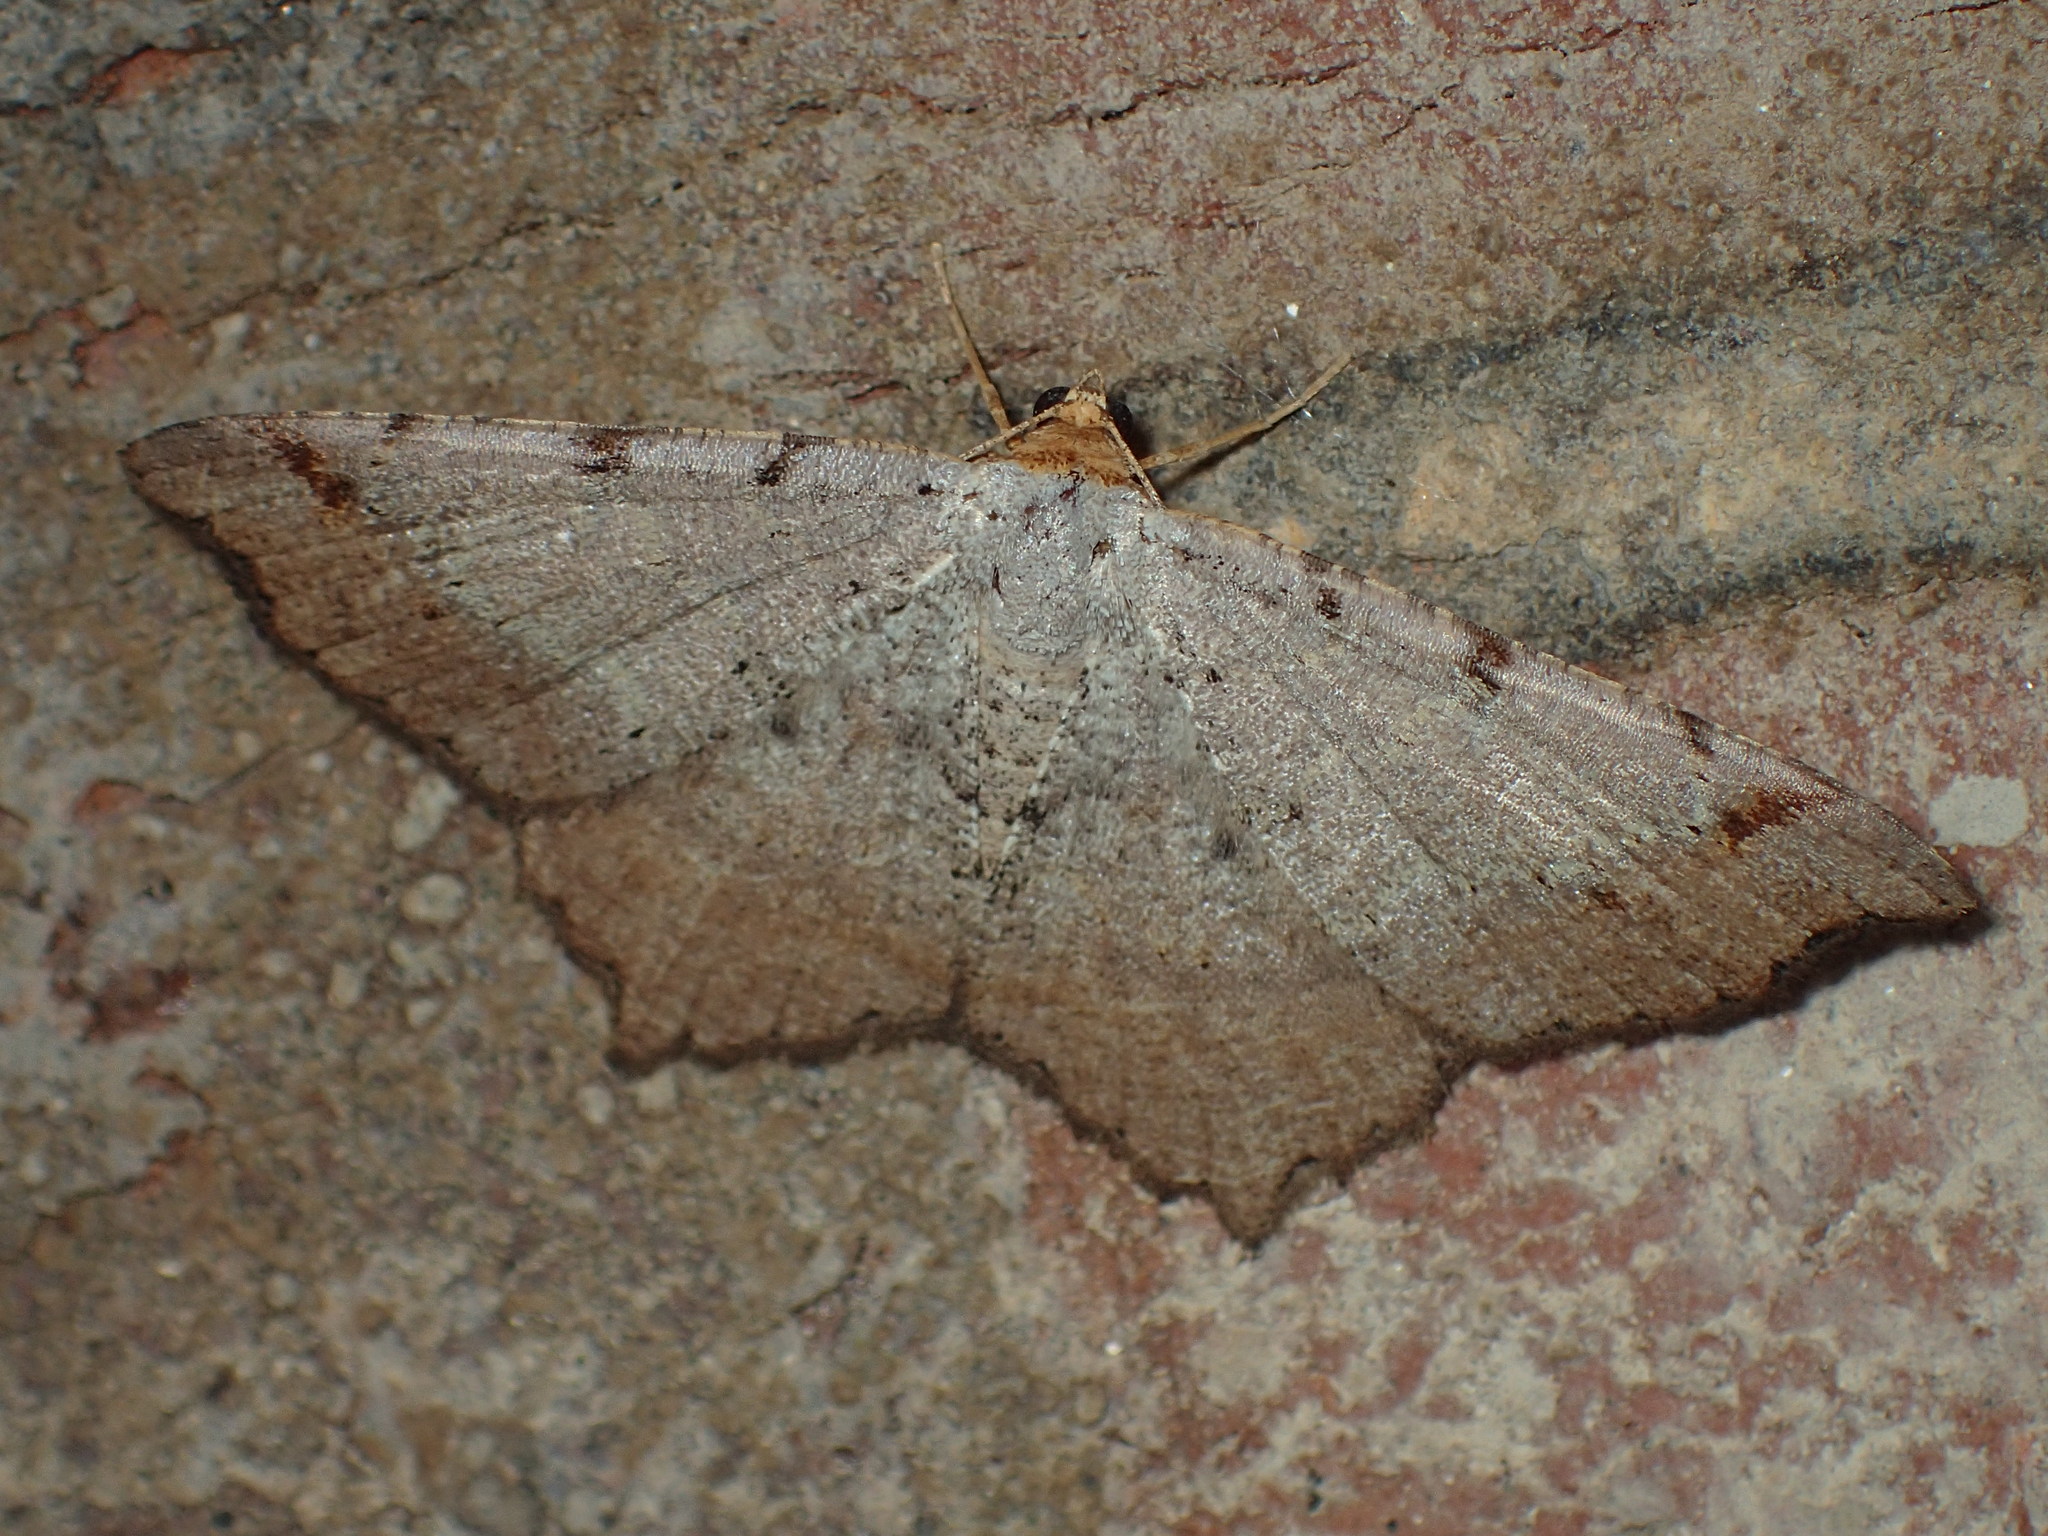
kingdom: Animalia
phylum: Arthropoda
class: Insecta
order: Lepidoptera
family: Geometridae
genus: Macaria
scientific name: Macaria bicolorata
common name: Dingy angle
